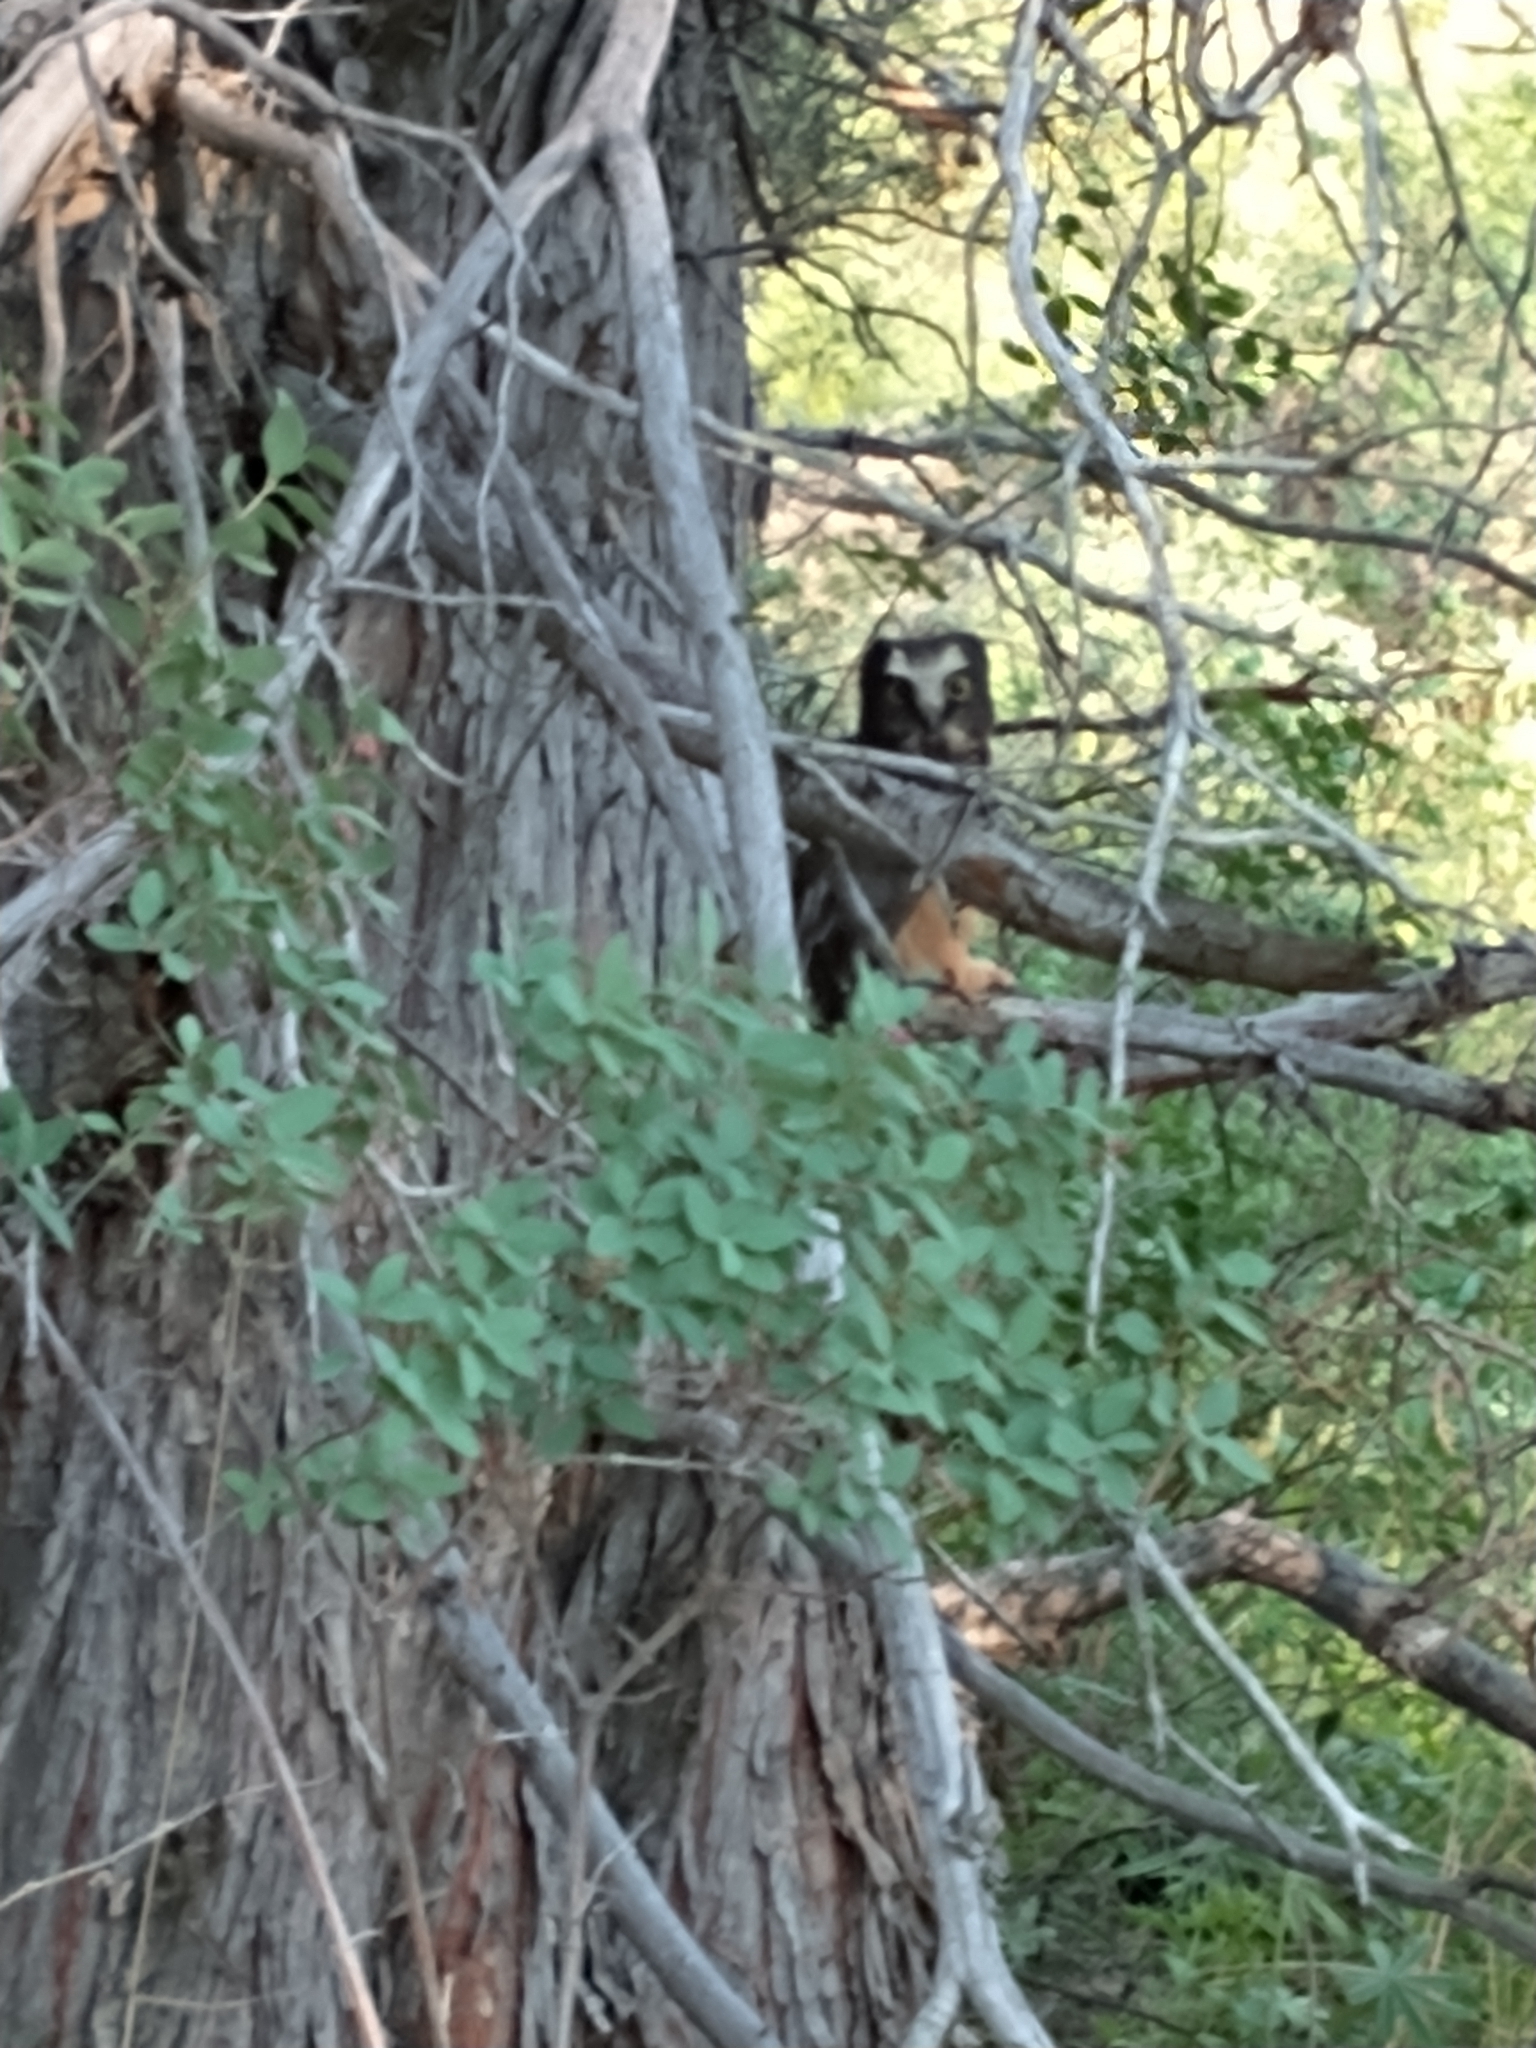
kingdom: Animalia
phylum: Chordata
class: Aves
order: Strigiformes
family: Strigidae
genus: Aegolius
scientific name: Aegolius acadicus
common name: Northern saw-whet owl
